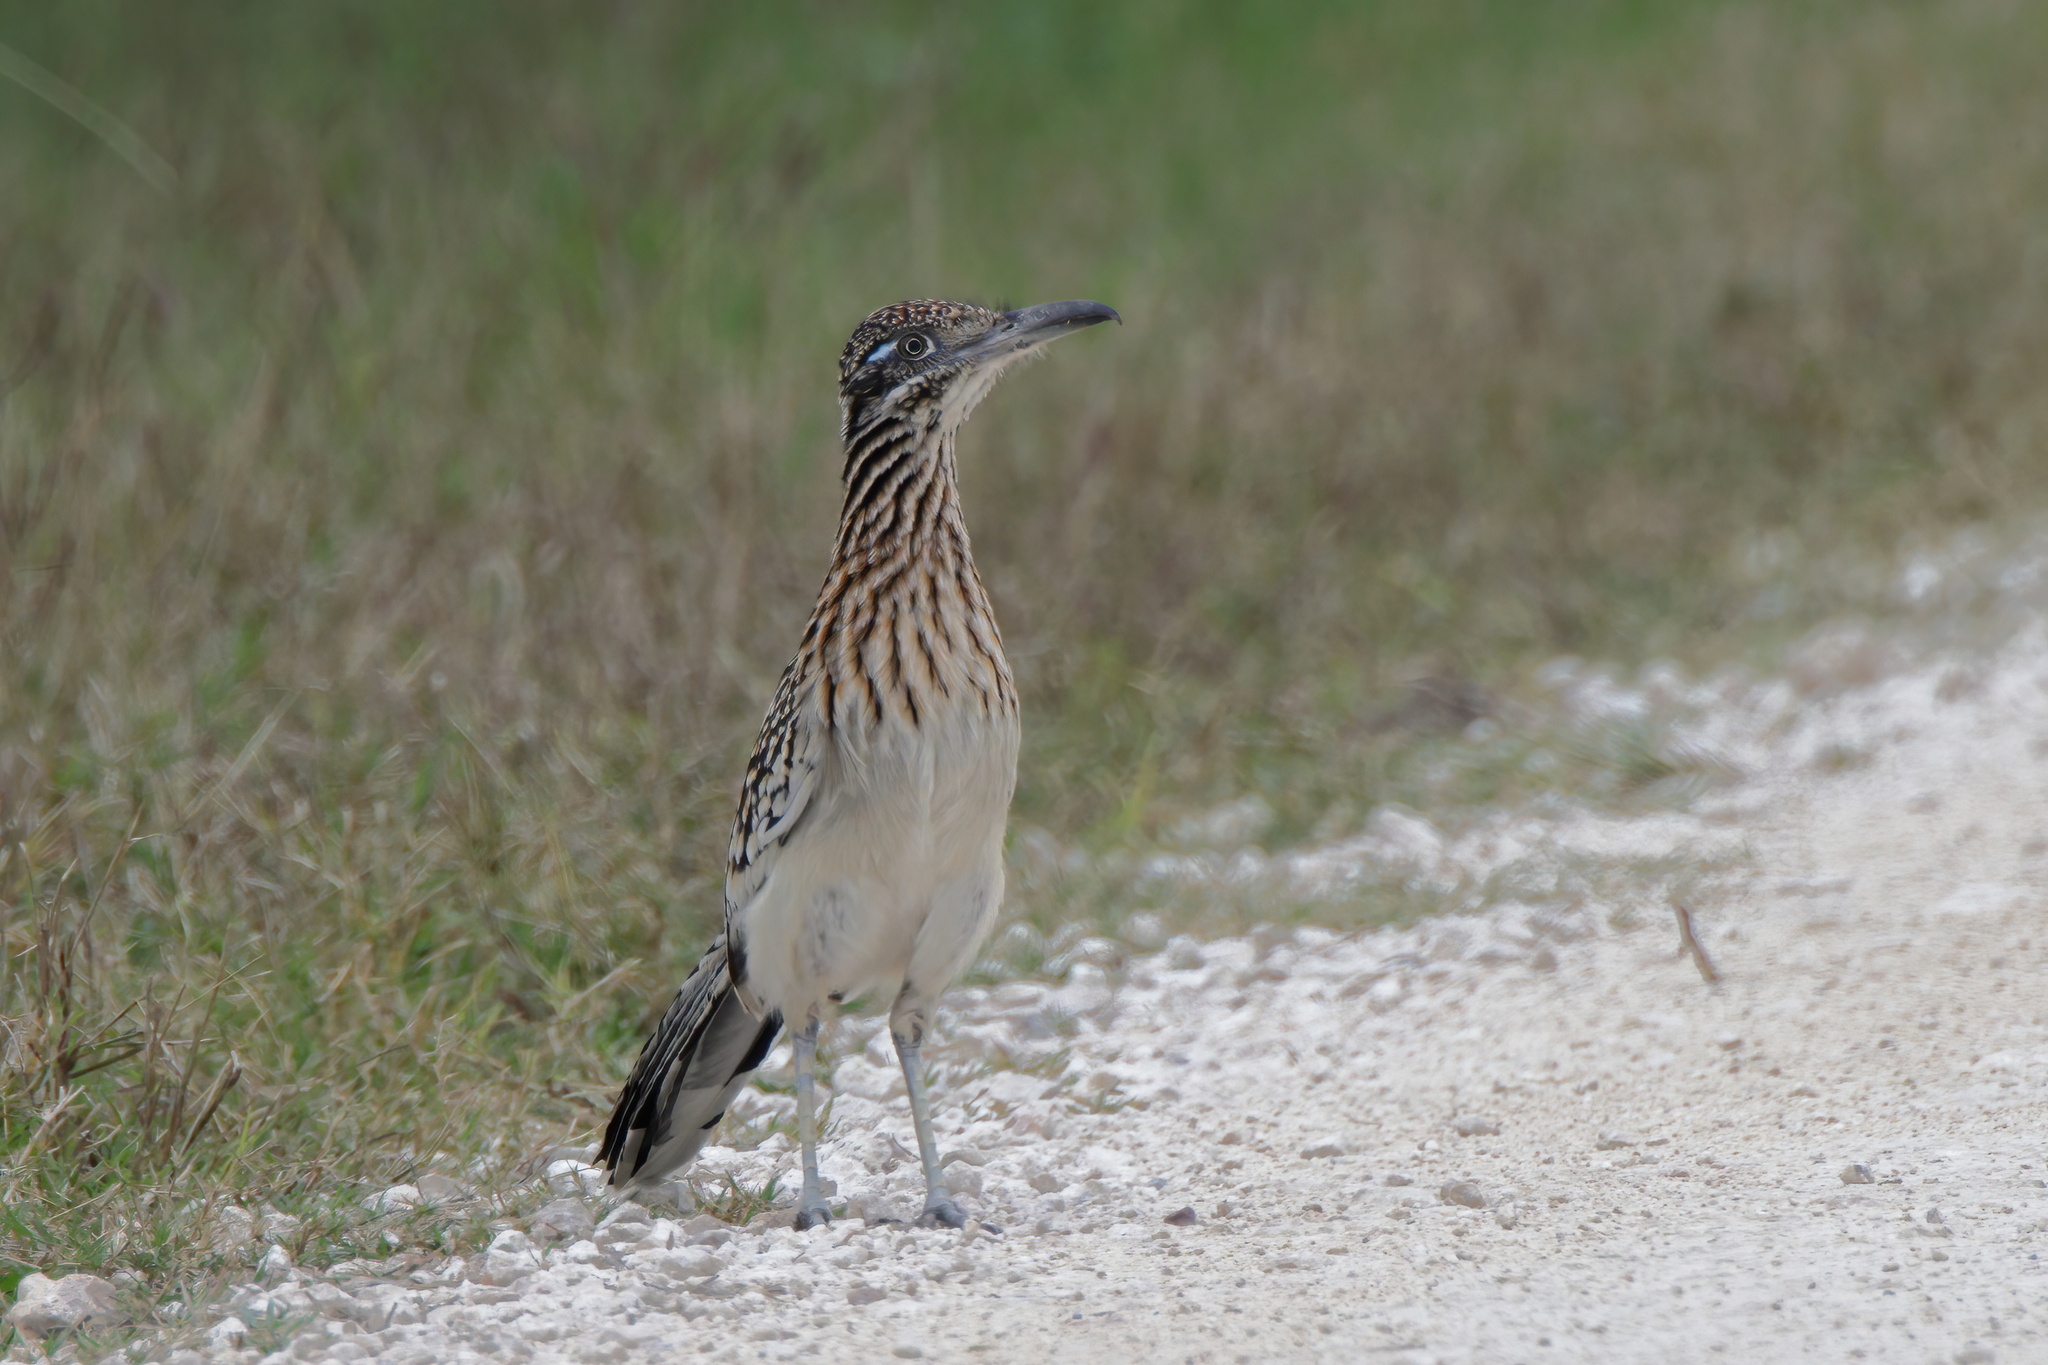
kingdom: Animalia
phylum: Chordata
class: Aves
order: Cuculiformes
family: Cuculidae
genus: Geococcyx
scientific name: Geococcyx californianus
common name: Greater roadrunner
